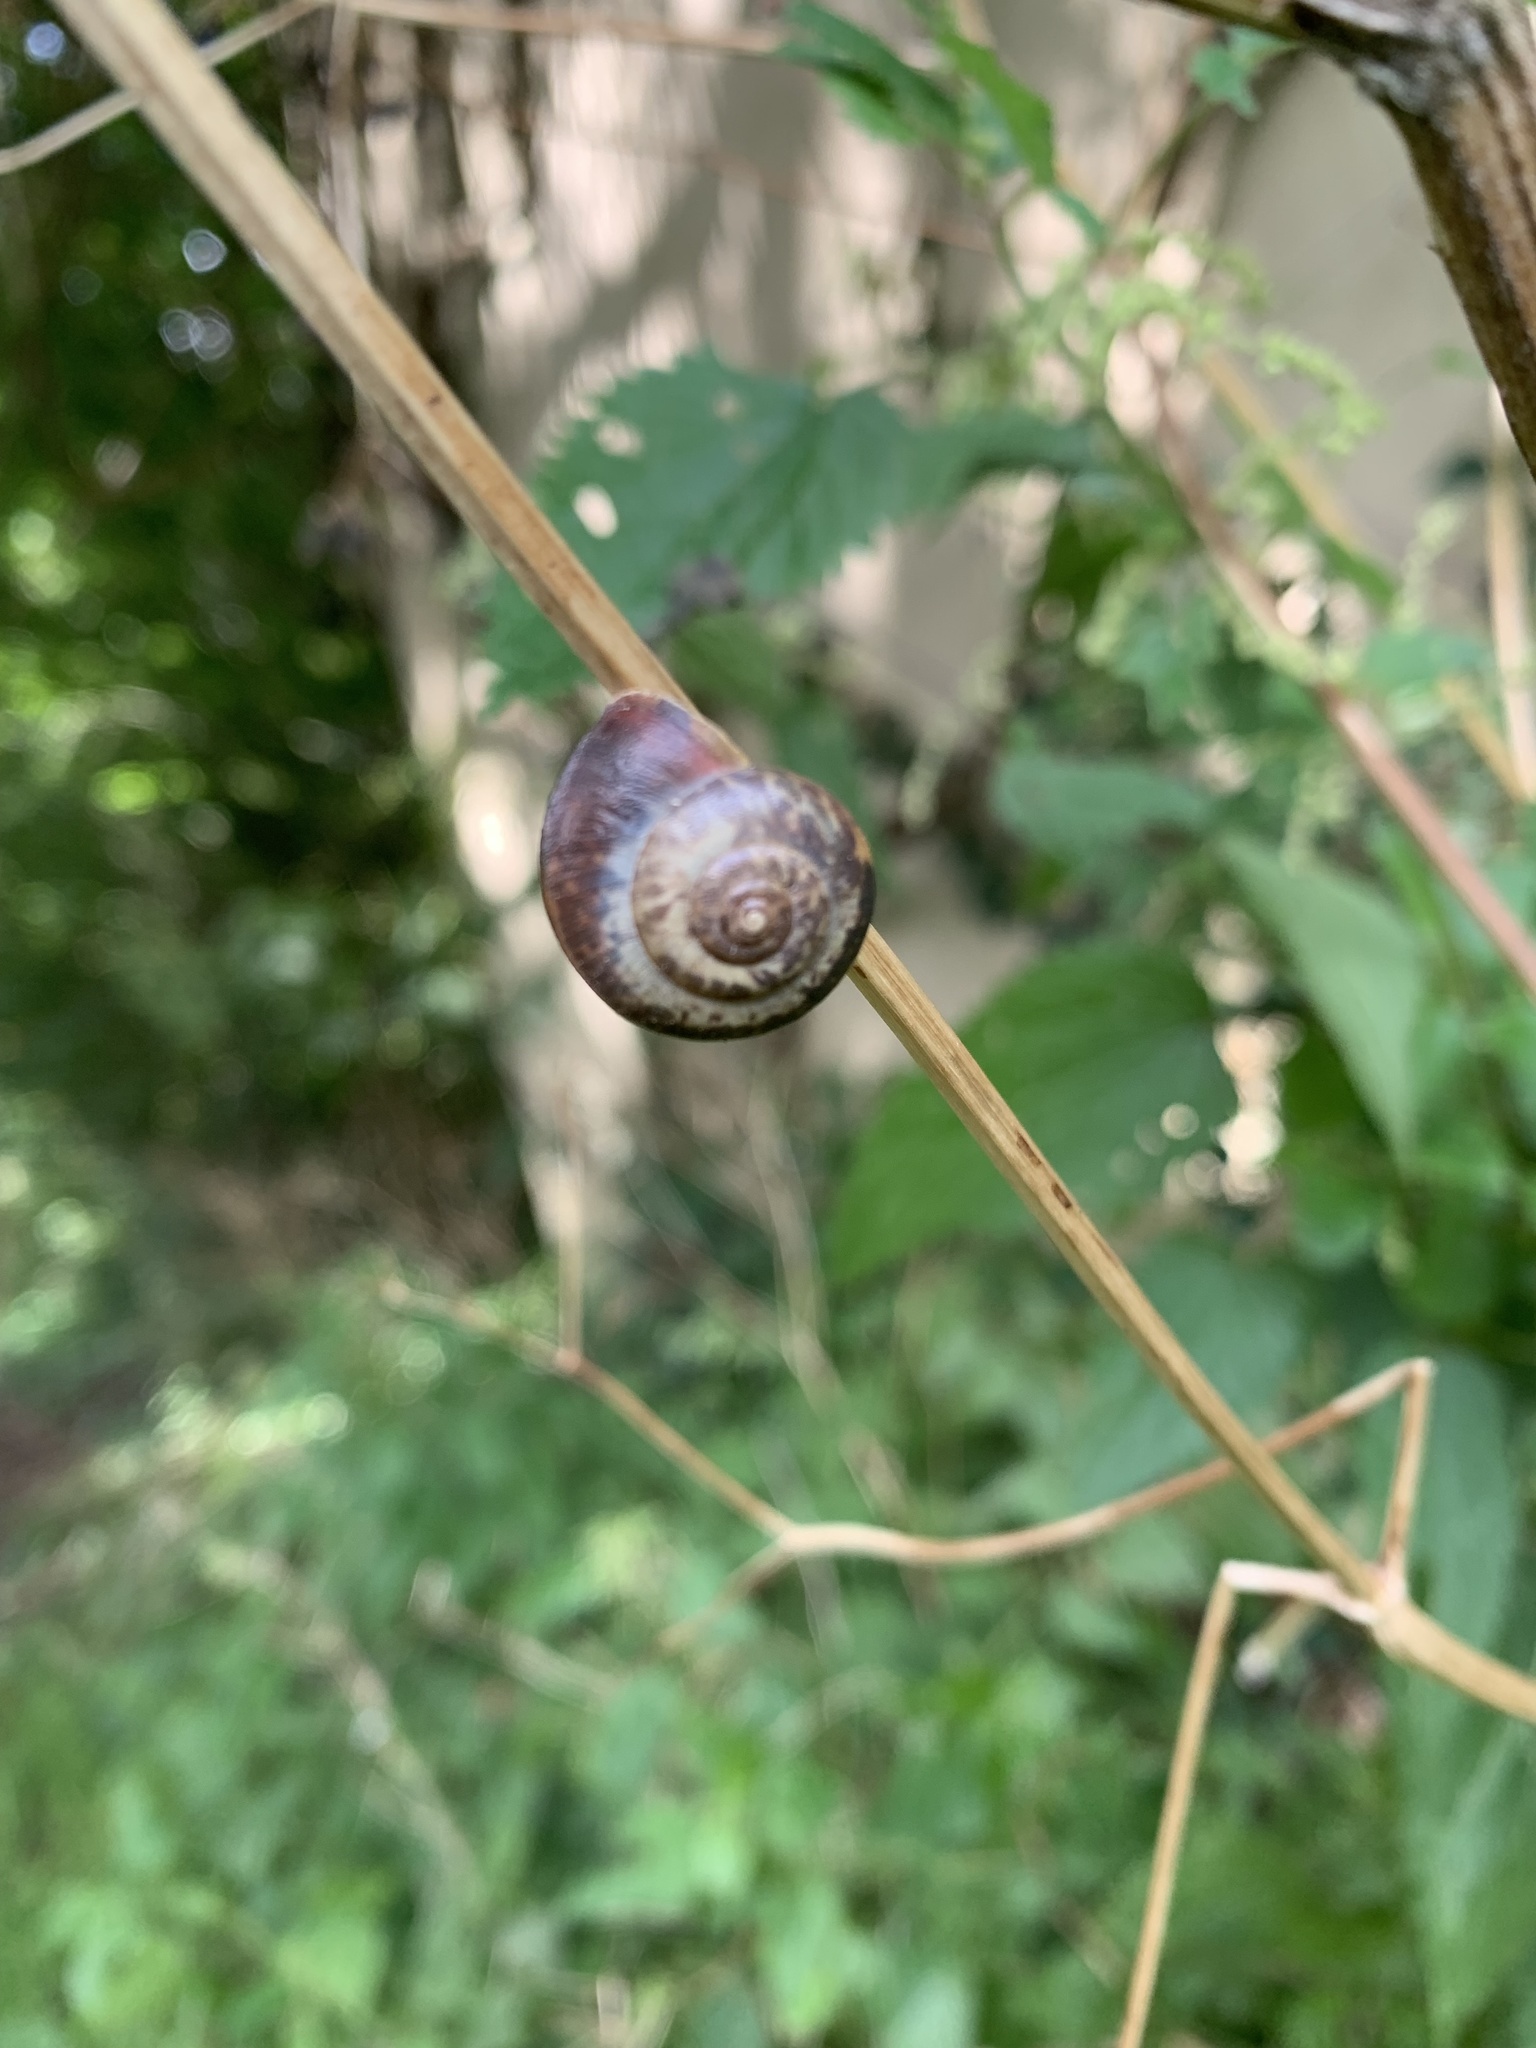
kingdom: Animalia
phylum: Mollusca
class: Gastropoda
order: Stylommatophora
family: Hygromiidae
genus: Monacha
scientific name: Monacha cantiana
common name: Kentish snail
